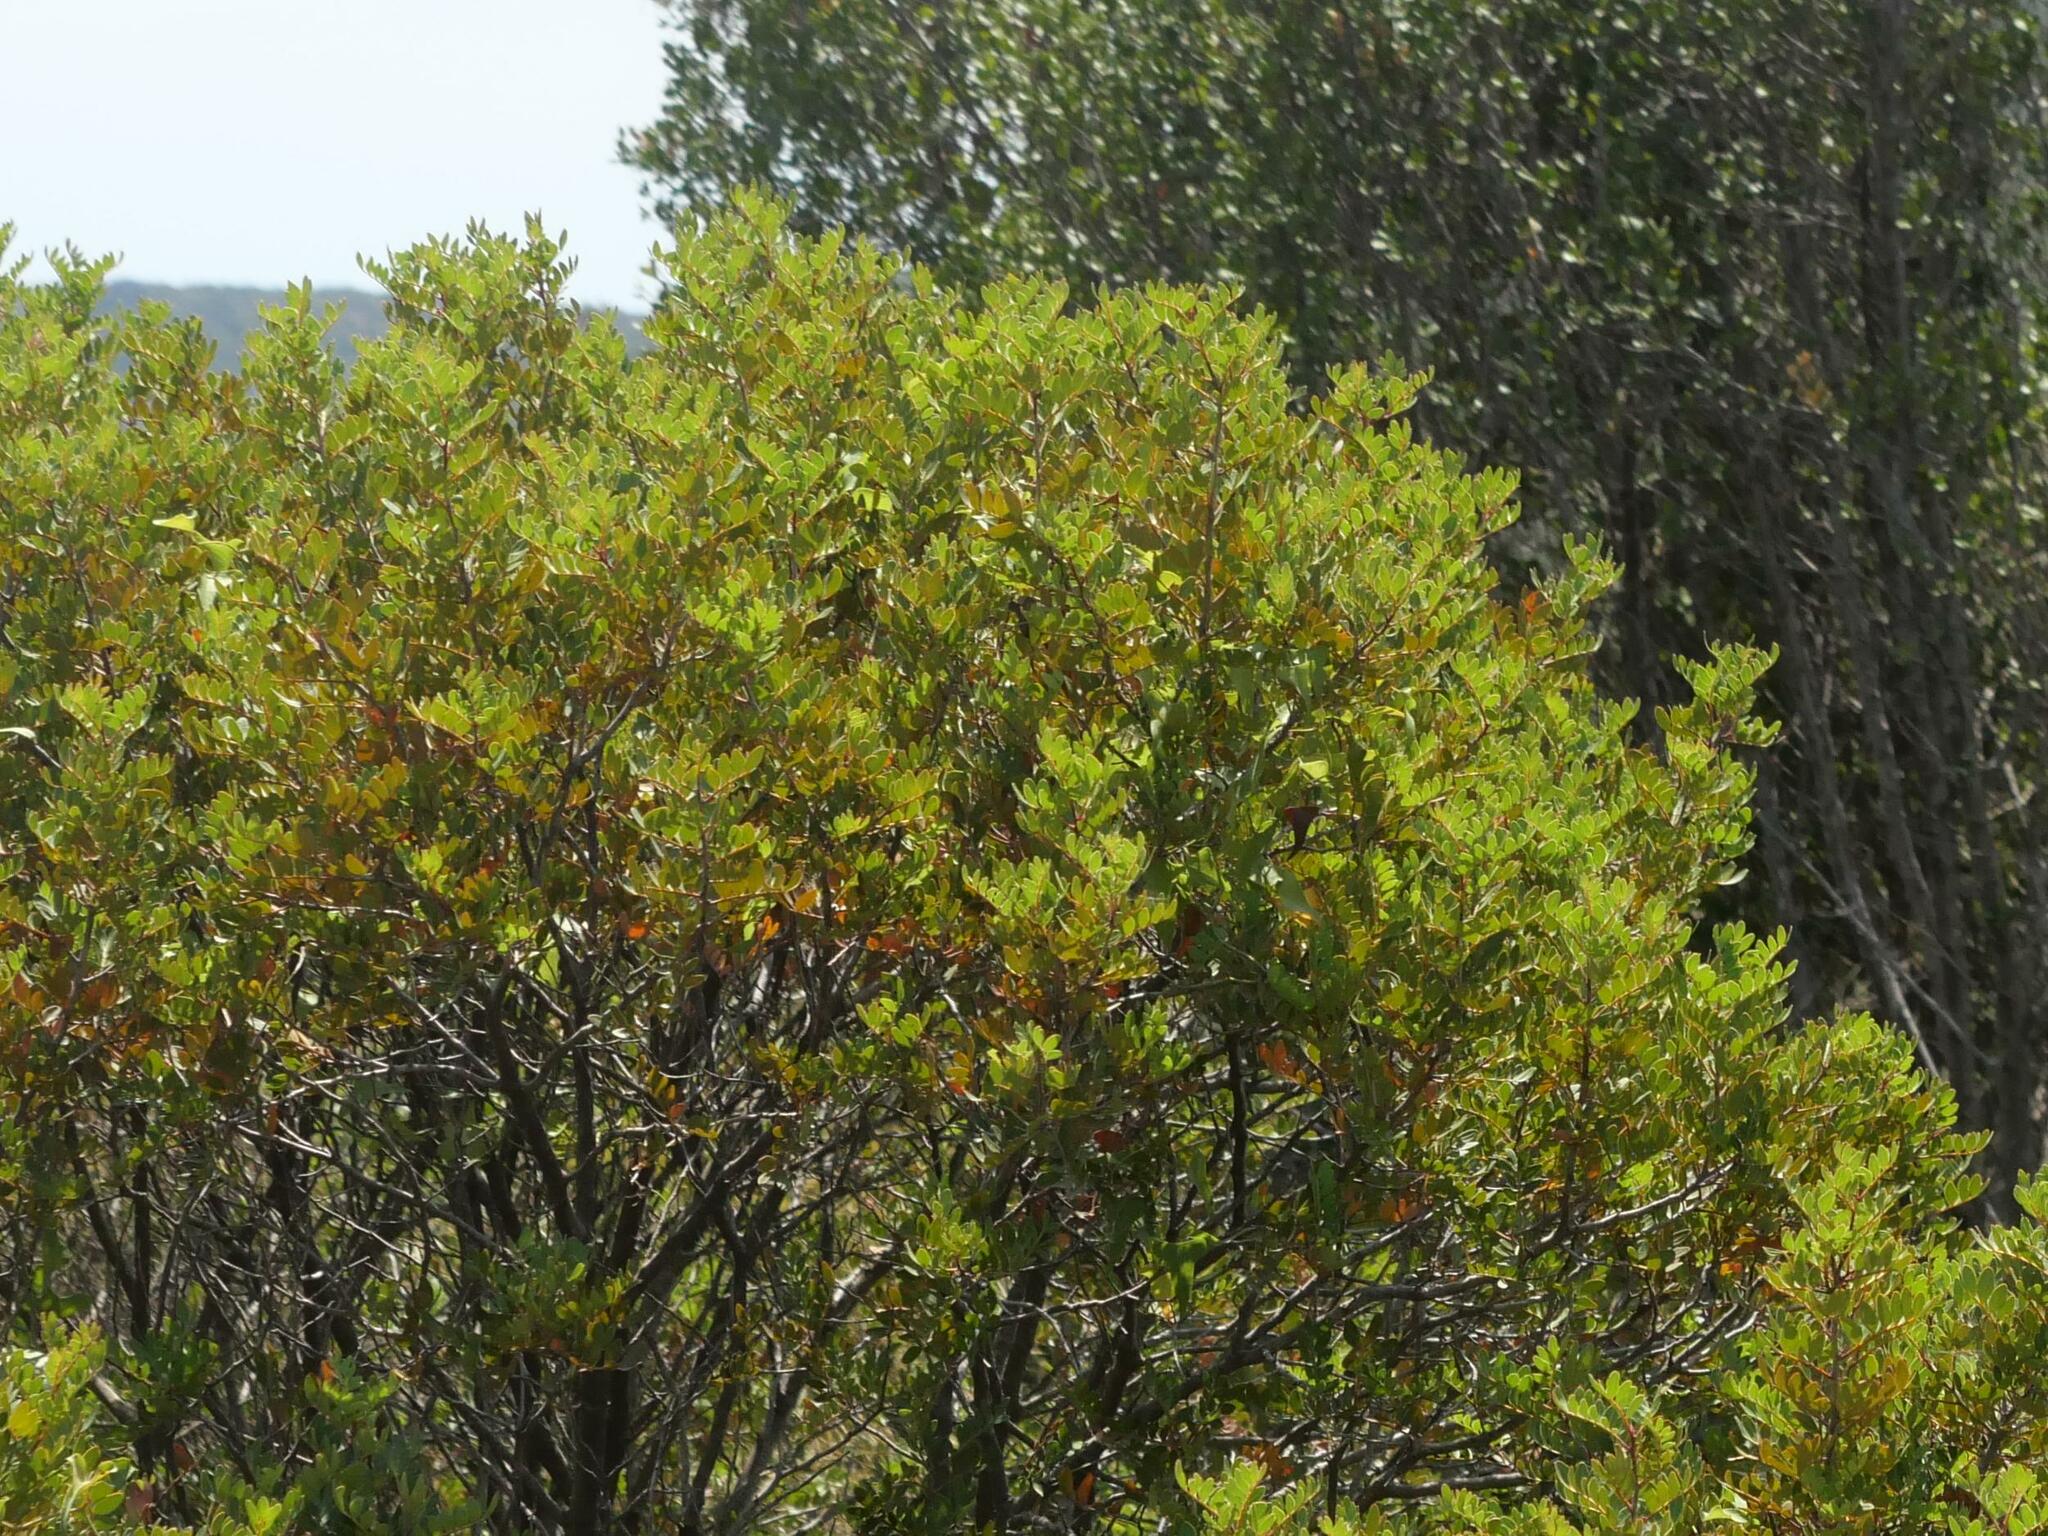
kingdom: Plantae
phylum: Tracheophyta
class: Magnoliopsida
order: Sapindales
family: Anacardiaceae
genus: Pistacia
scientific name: Pistacia lentiscus
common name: Lentisk
